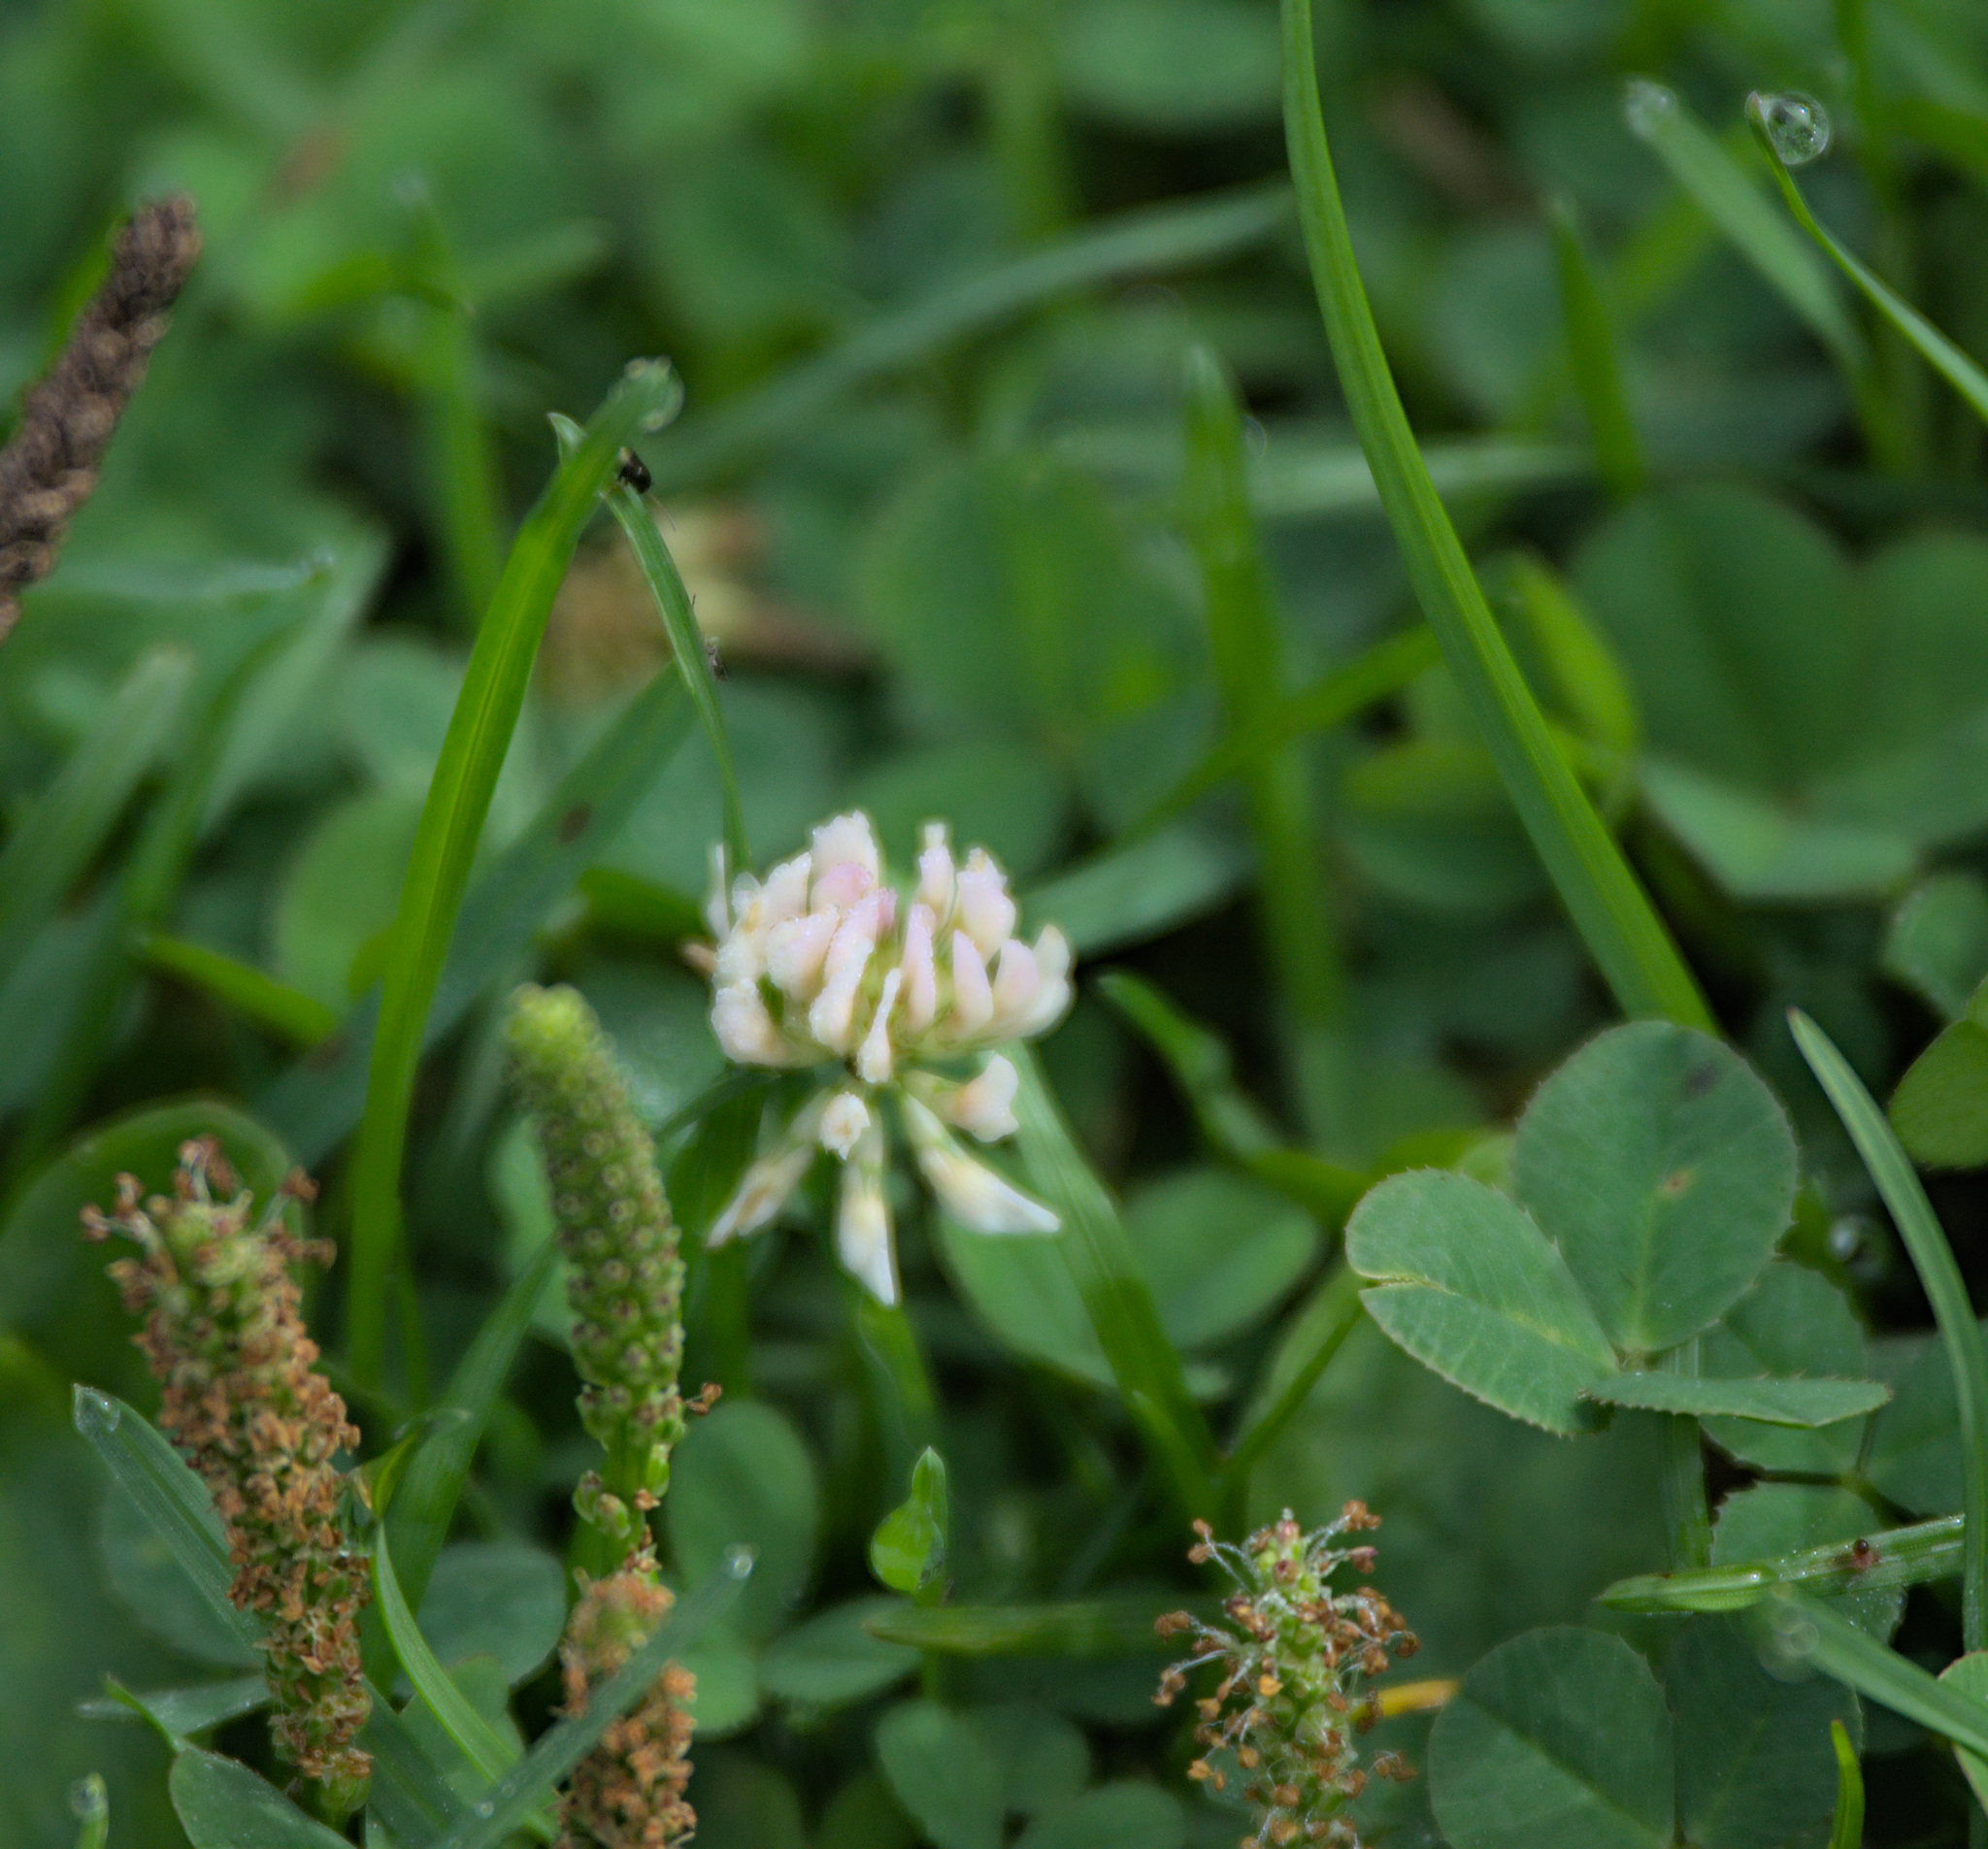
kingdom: Plantae
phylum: Tracheophyta
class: Magnoliopsida
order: Fabales
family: Fabaceae
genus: Trifolium
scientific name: Trifolium repens
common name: White clover
